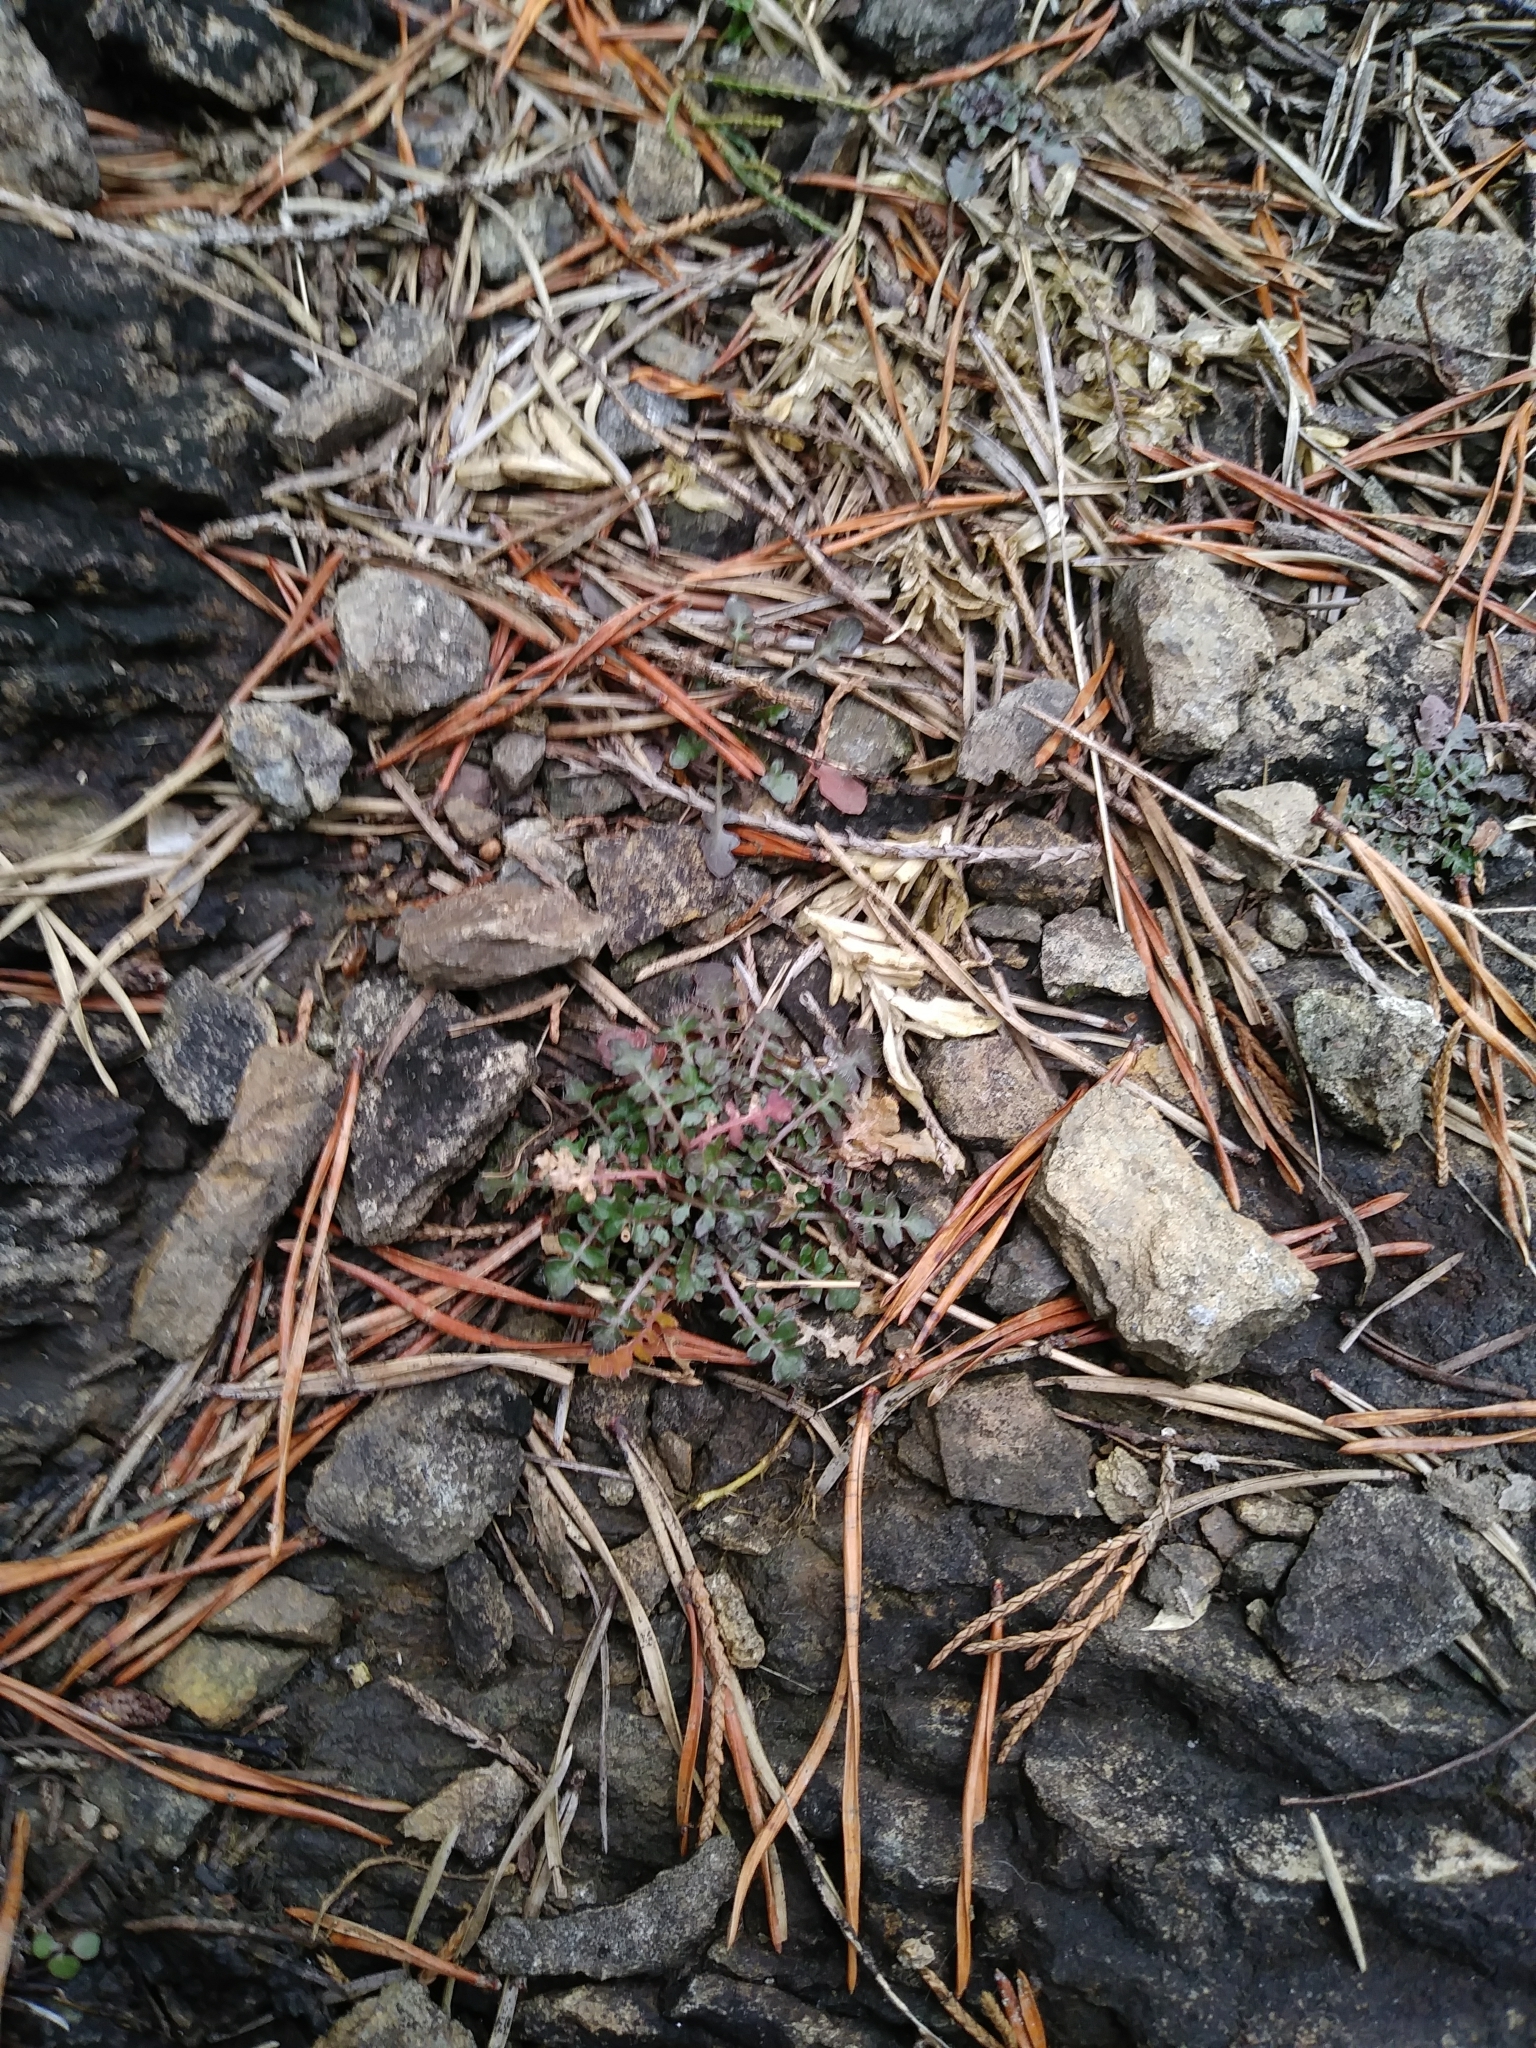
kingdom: Plantae
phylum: Tracheophyta
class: Magnoliopsida
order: Brassicales
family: Brassicaceae
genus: Arabidopsis
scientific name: Arabidopsis lyrata
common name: Lyrate rockcress
